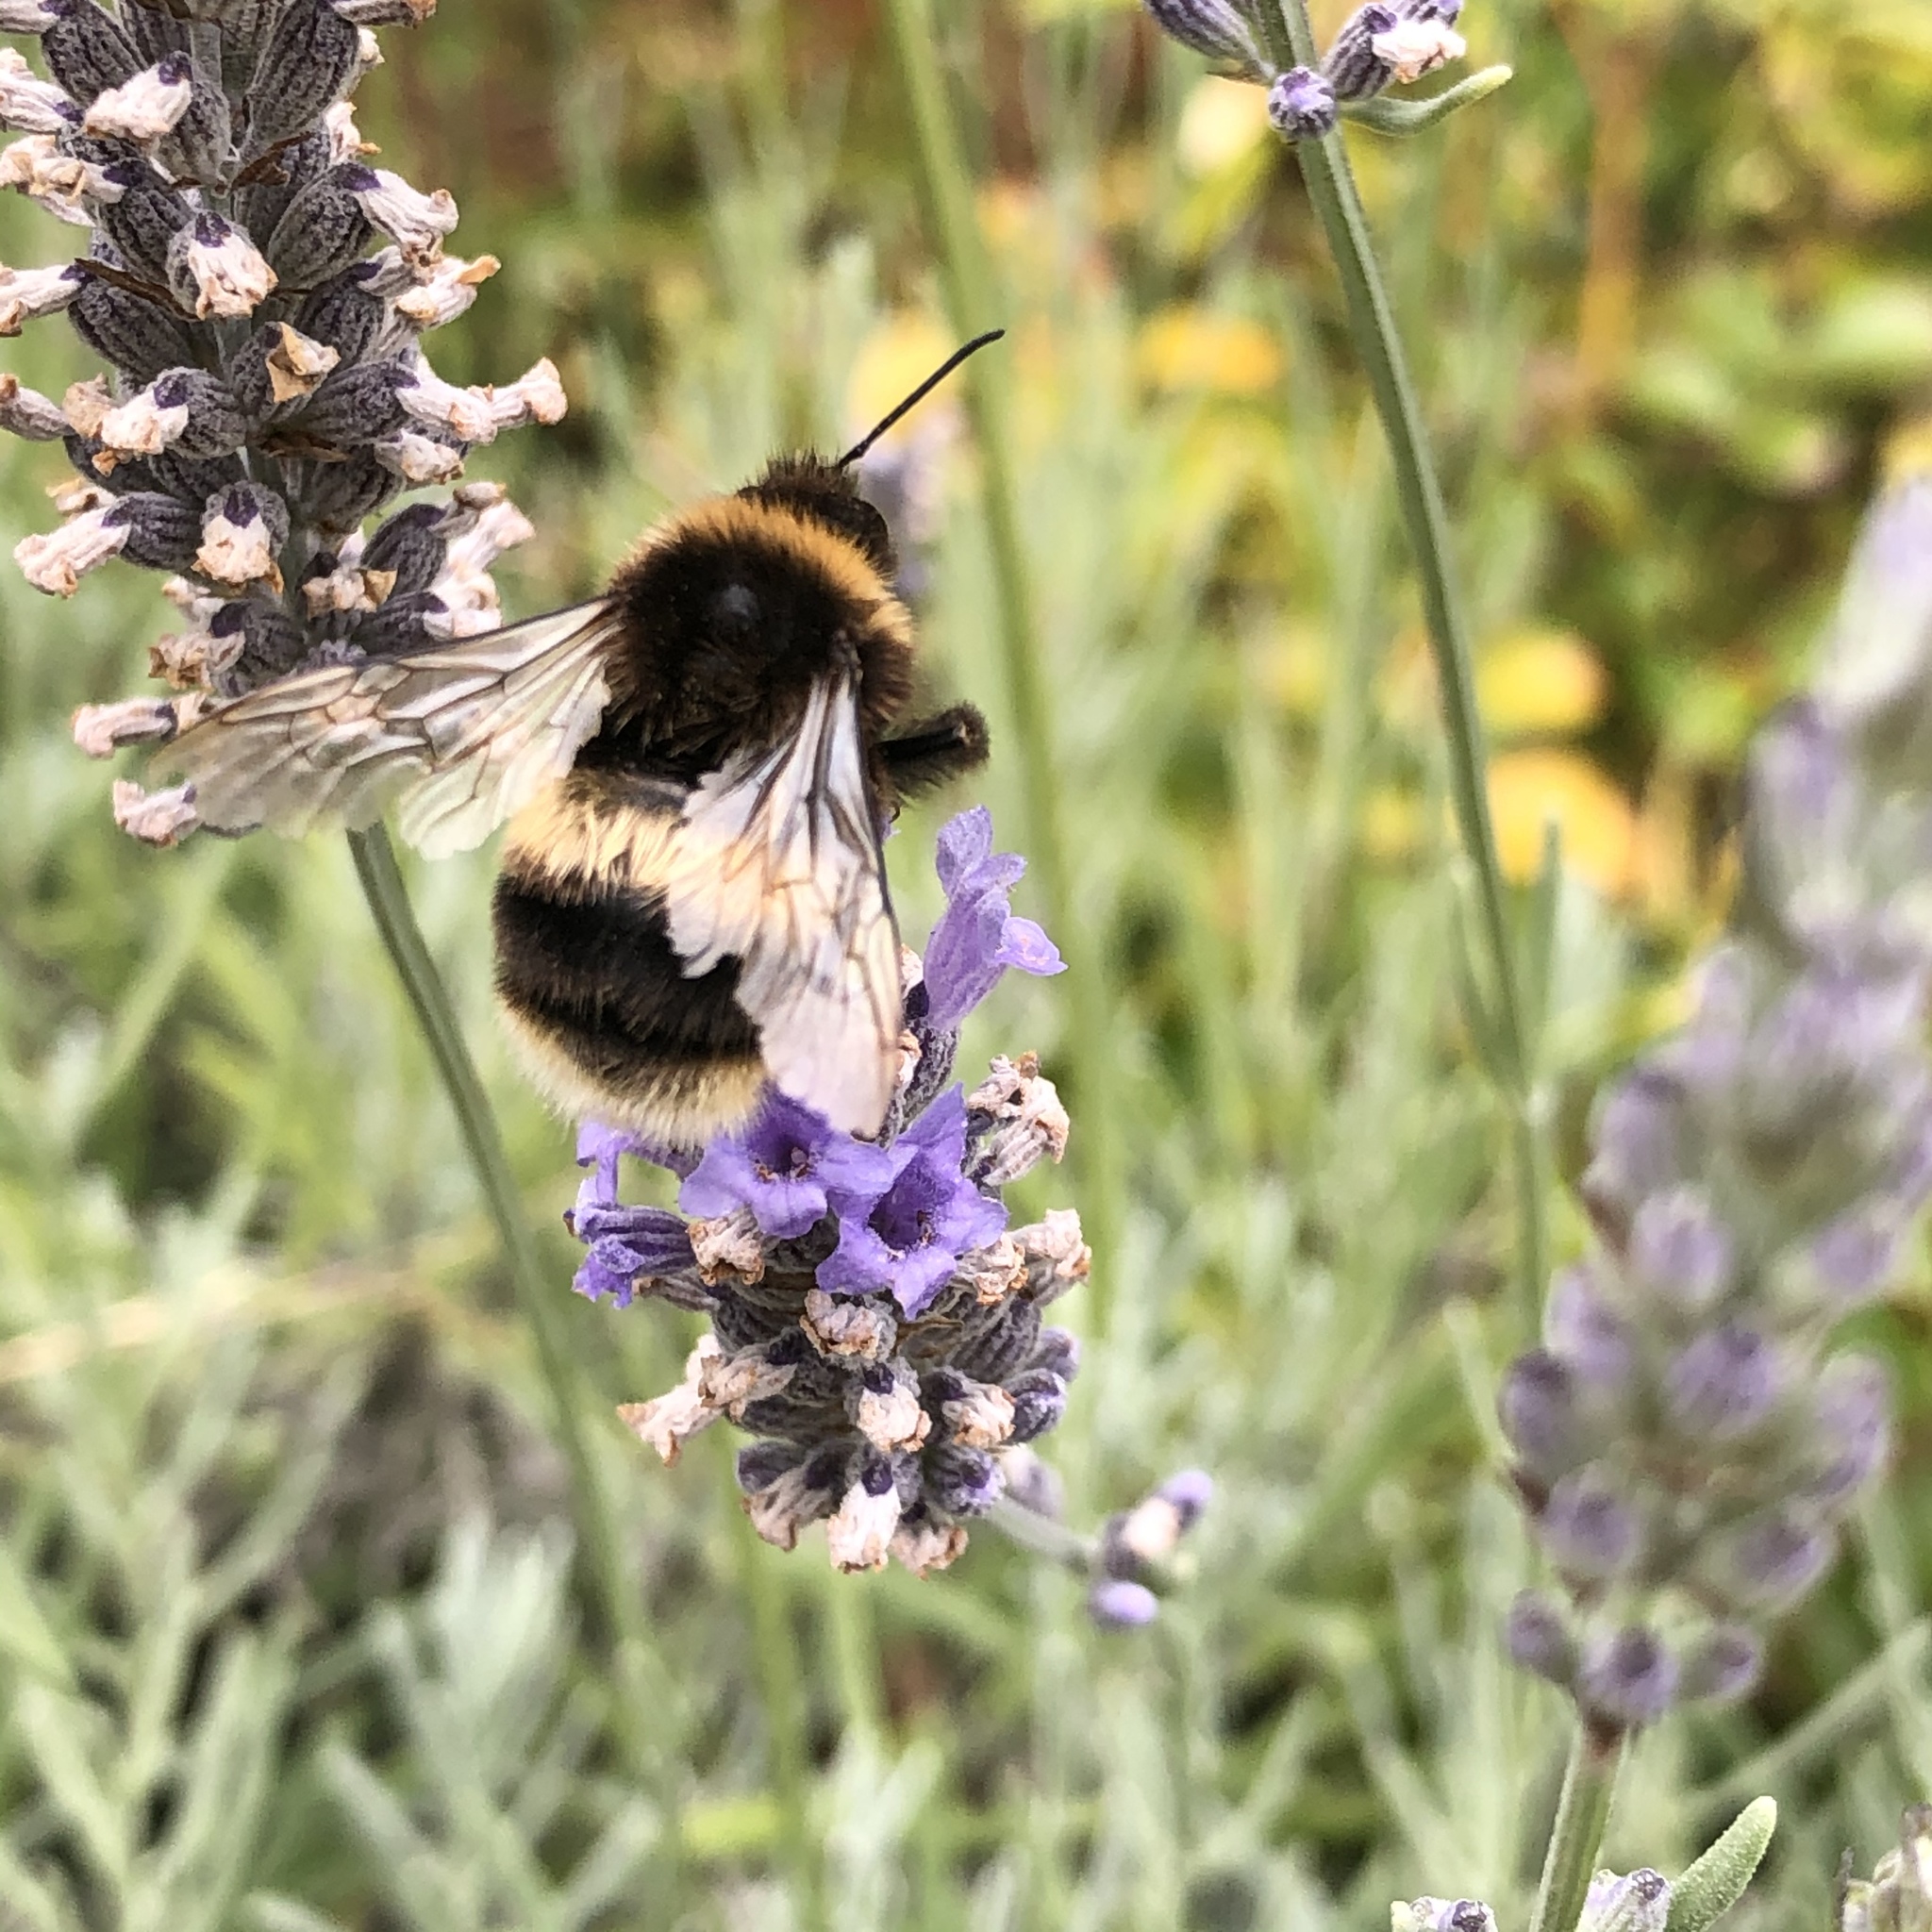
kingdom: Animalia
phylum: Arthropoda
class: Insecta
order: Hymenoptera
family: Apidae
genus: Bombus
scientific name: Bombus terrestris
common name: Buff-tailed bumblebee
